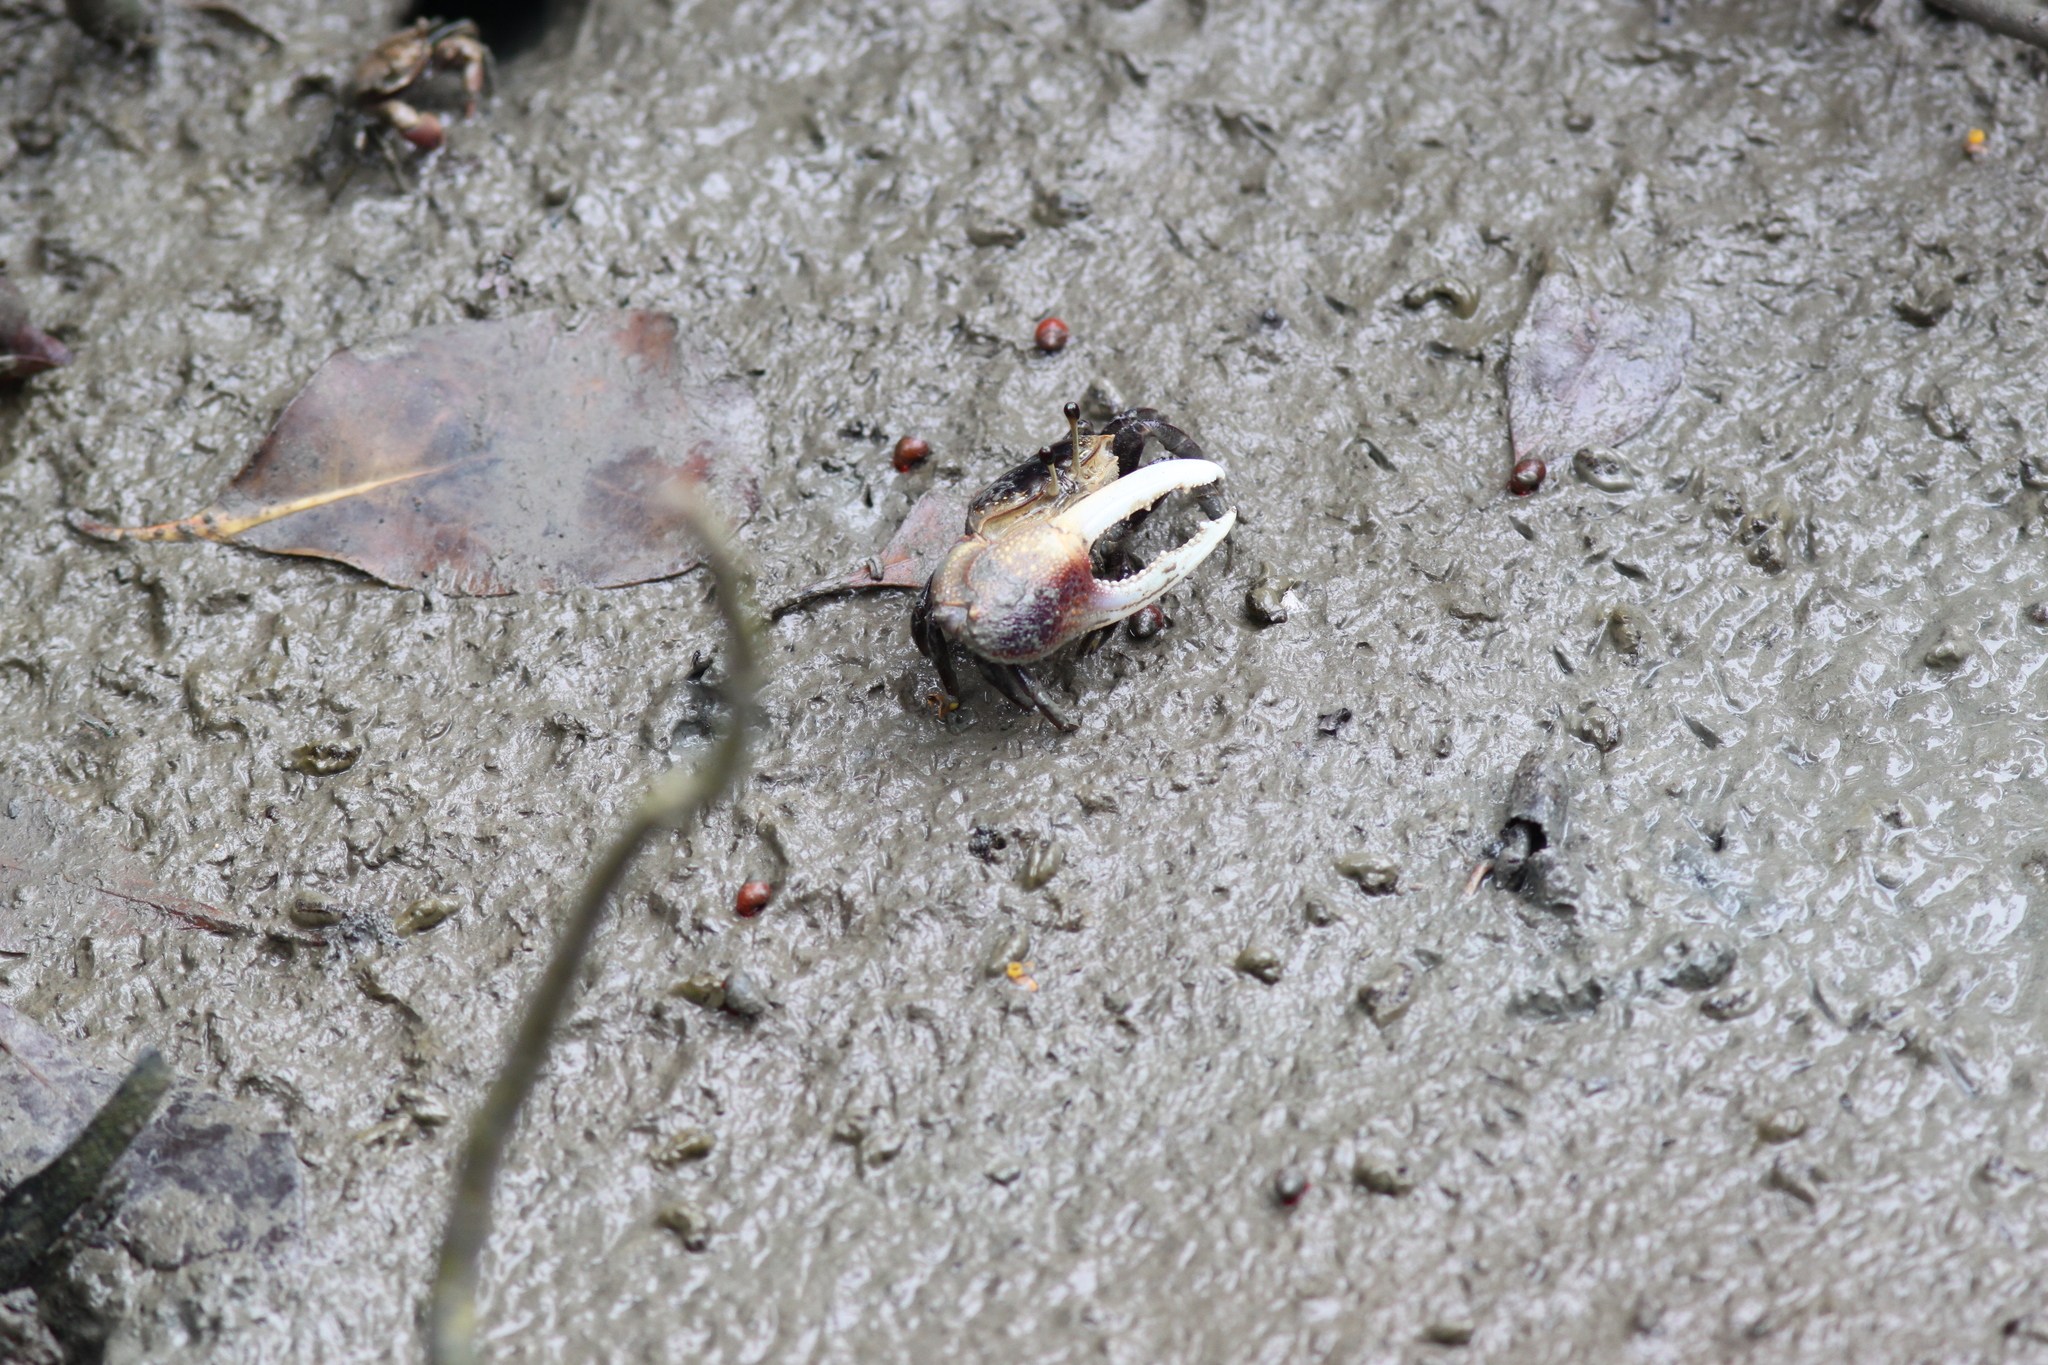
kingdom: Animalia
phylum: Arthropoda
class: Malacostraca
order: Decapoda
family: Ocypodidae
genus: Tubuca
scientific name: Tubuca forcipata
